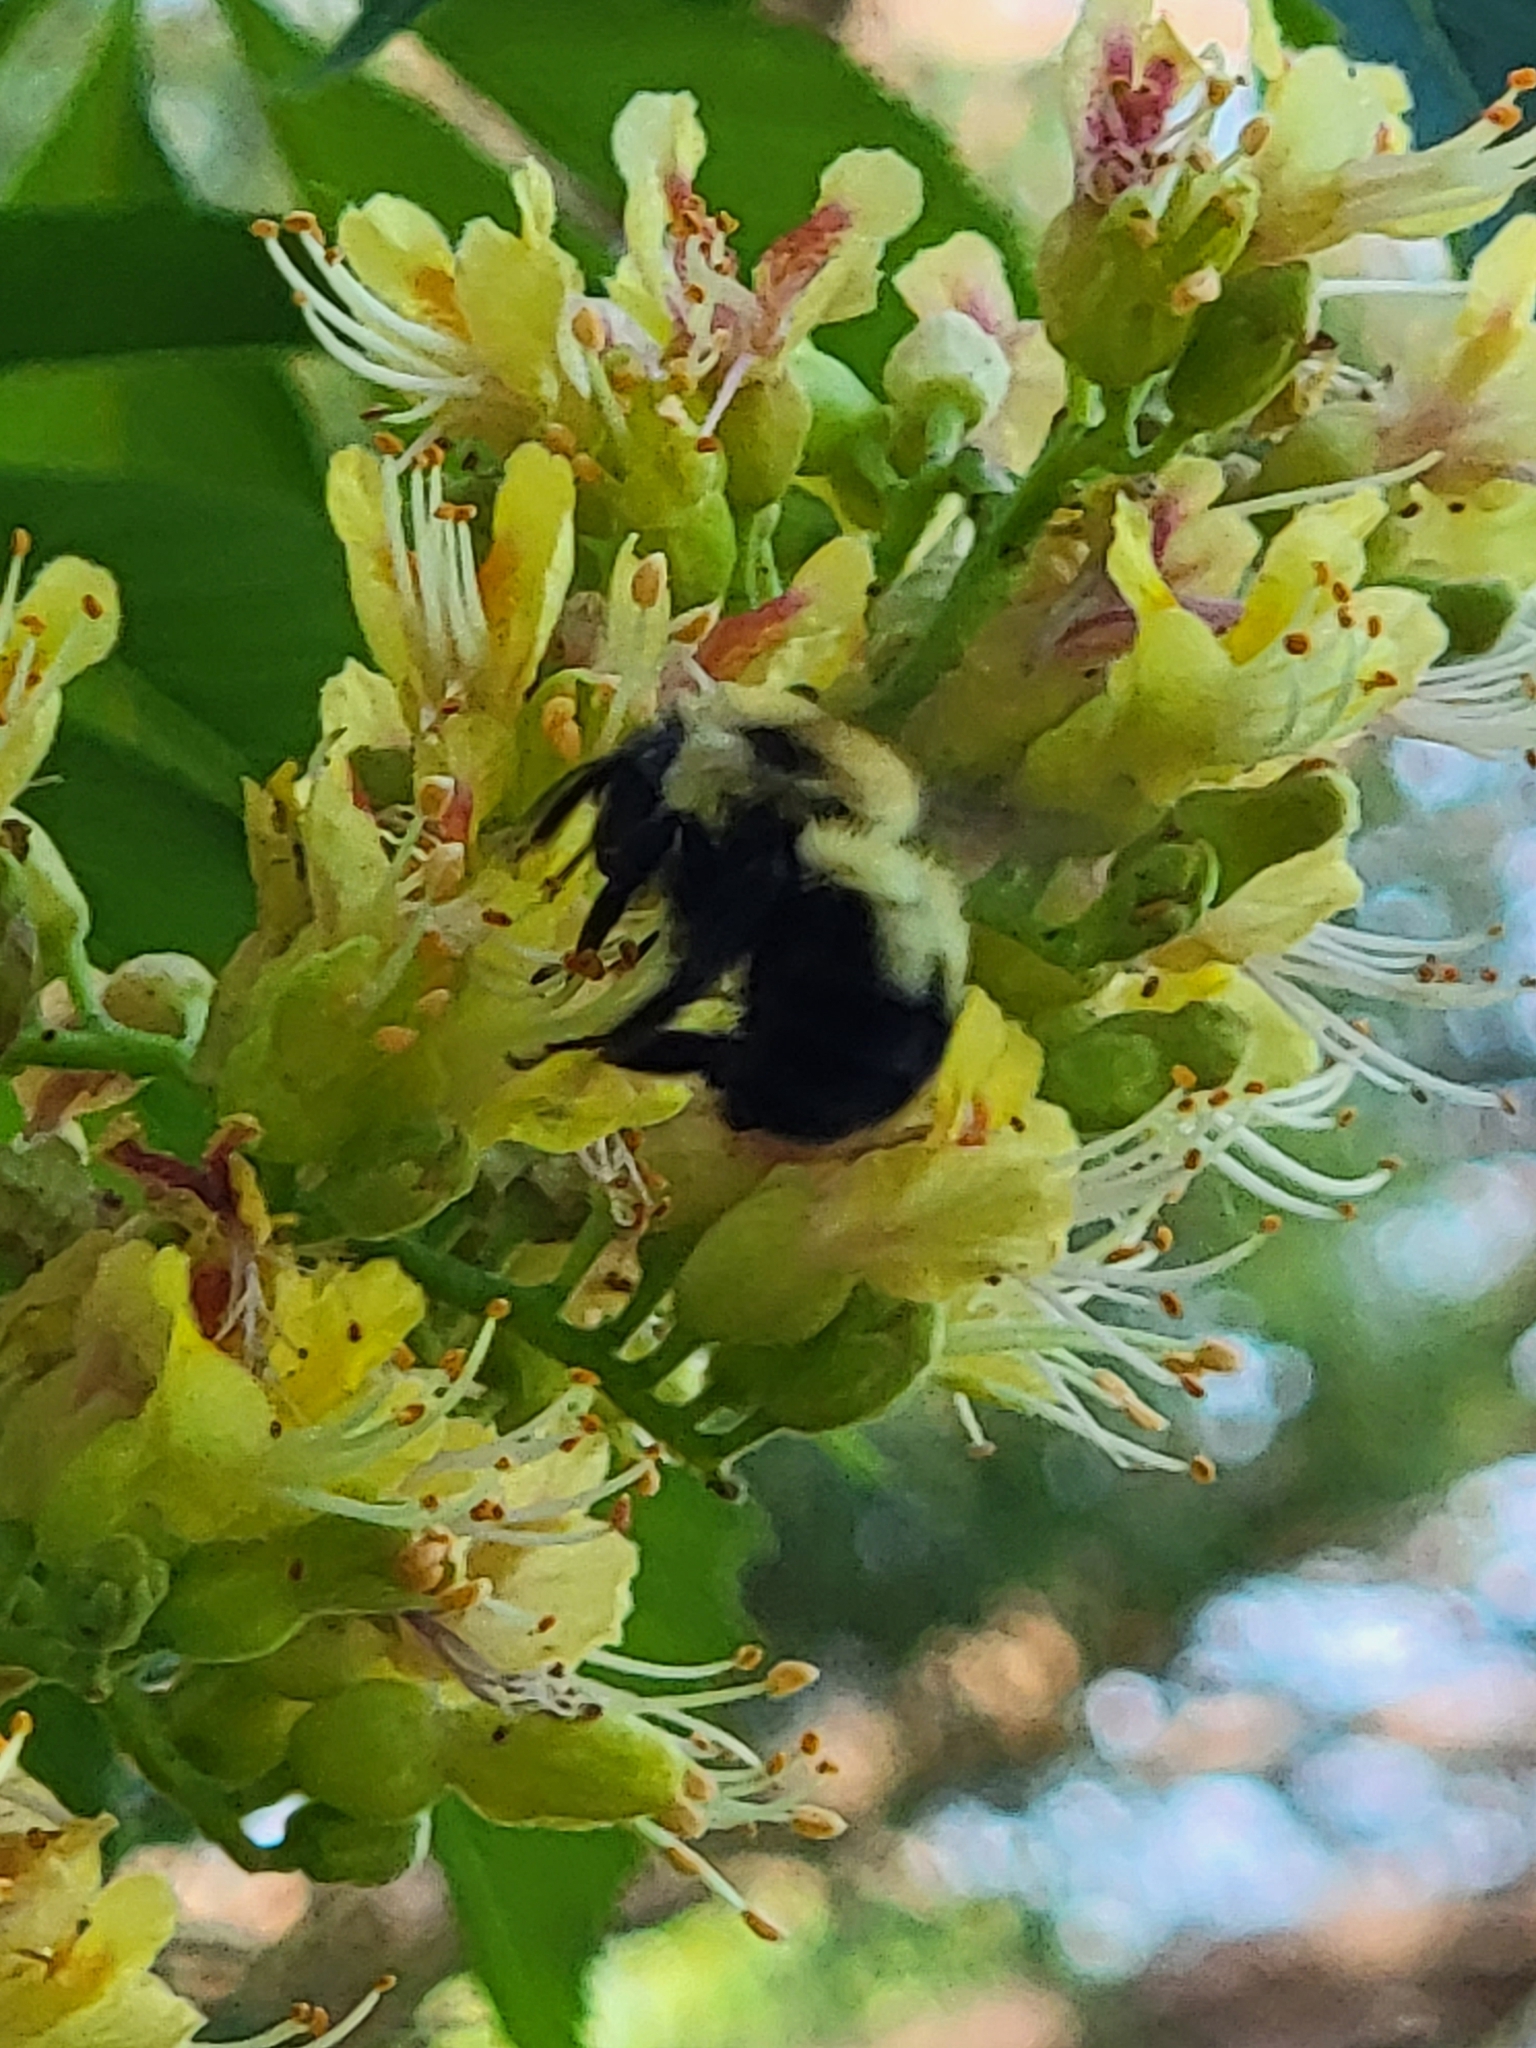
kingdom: Animalia
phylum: Arthropoda
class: Insecta
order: Hymenoptera
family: Apidae
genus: Bombus
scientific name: Bombus bimaculatus
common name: Two-spotted bumble bee
